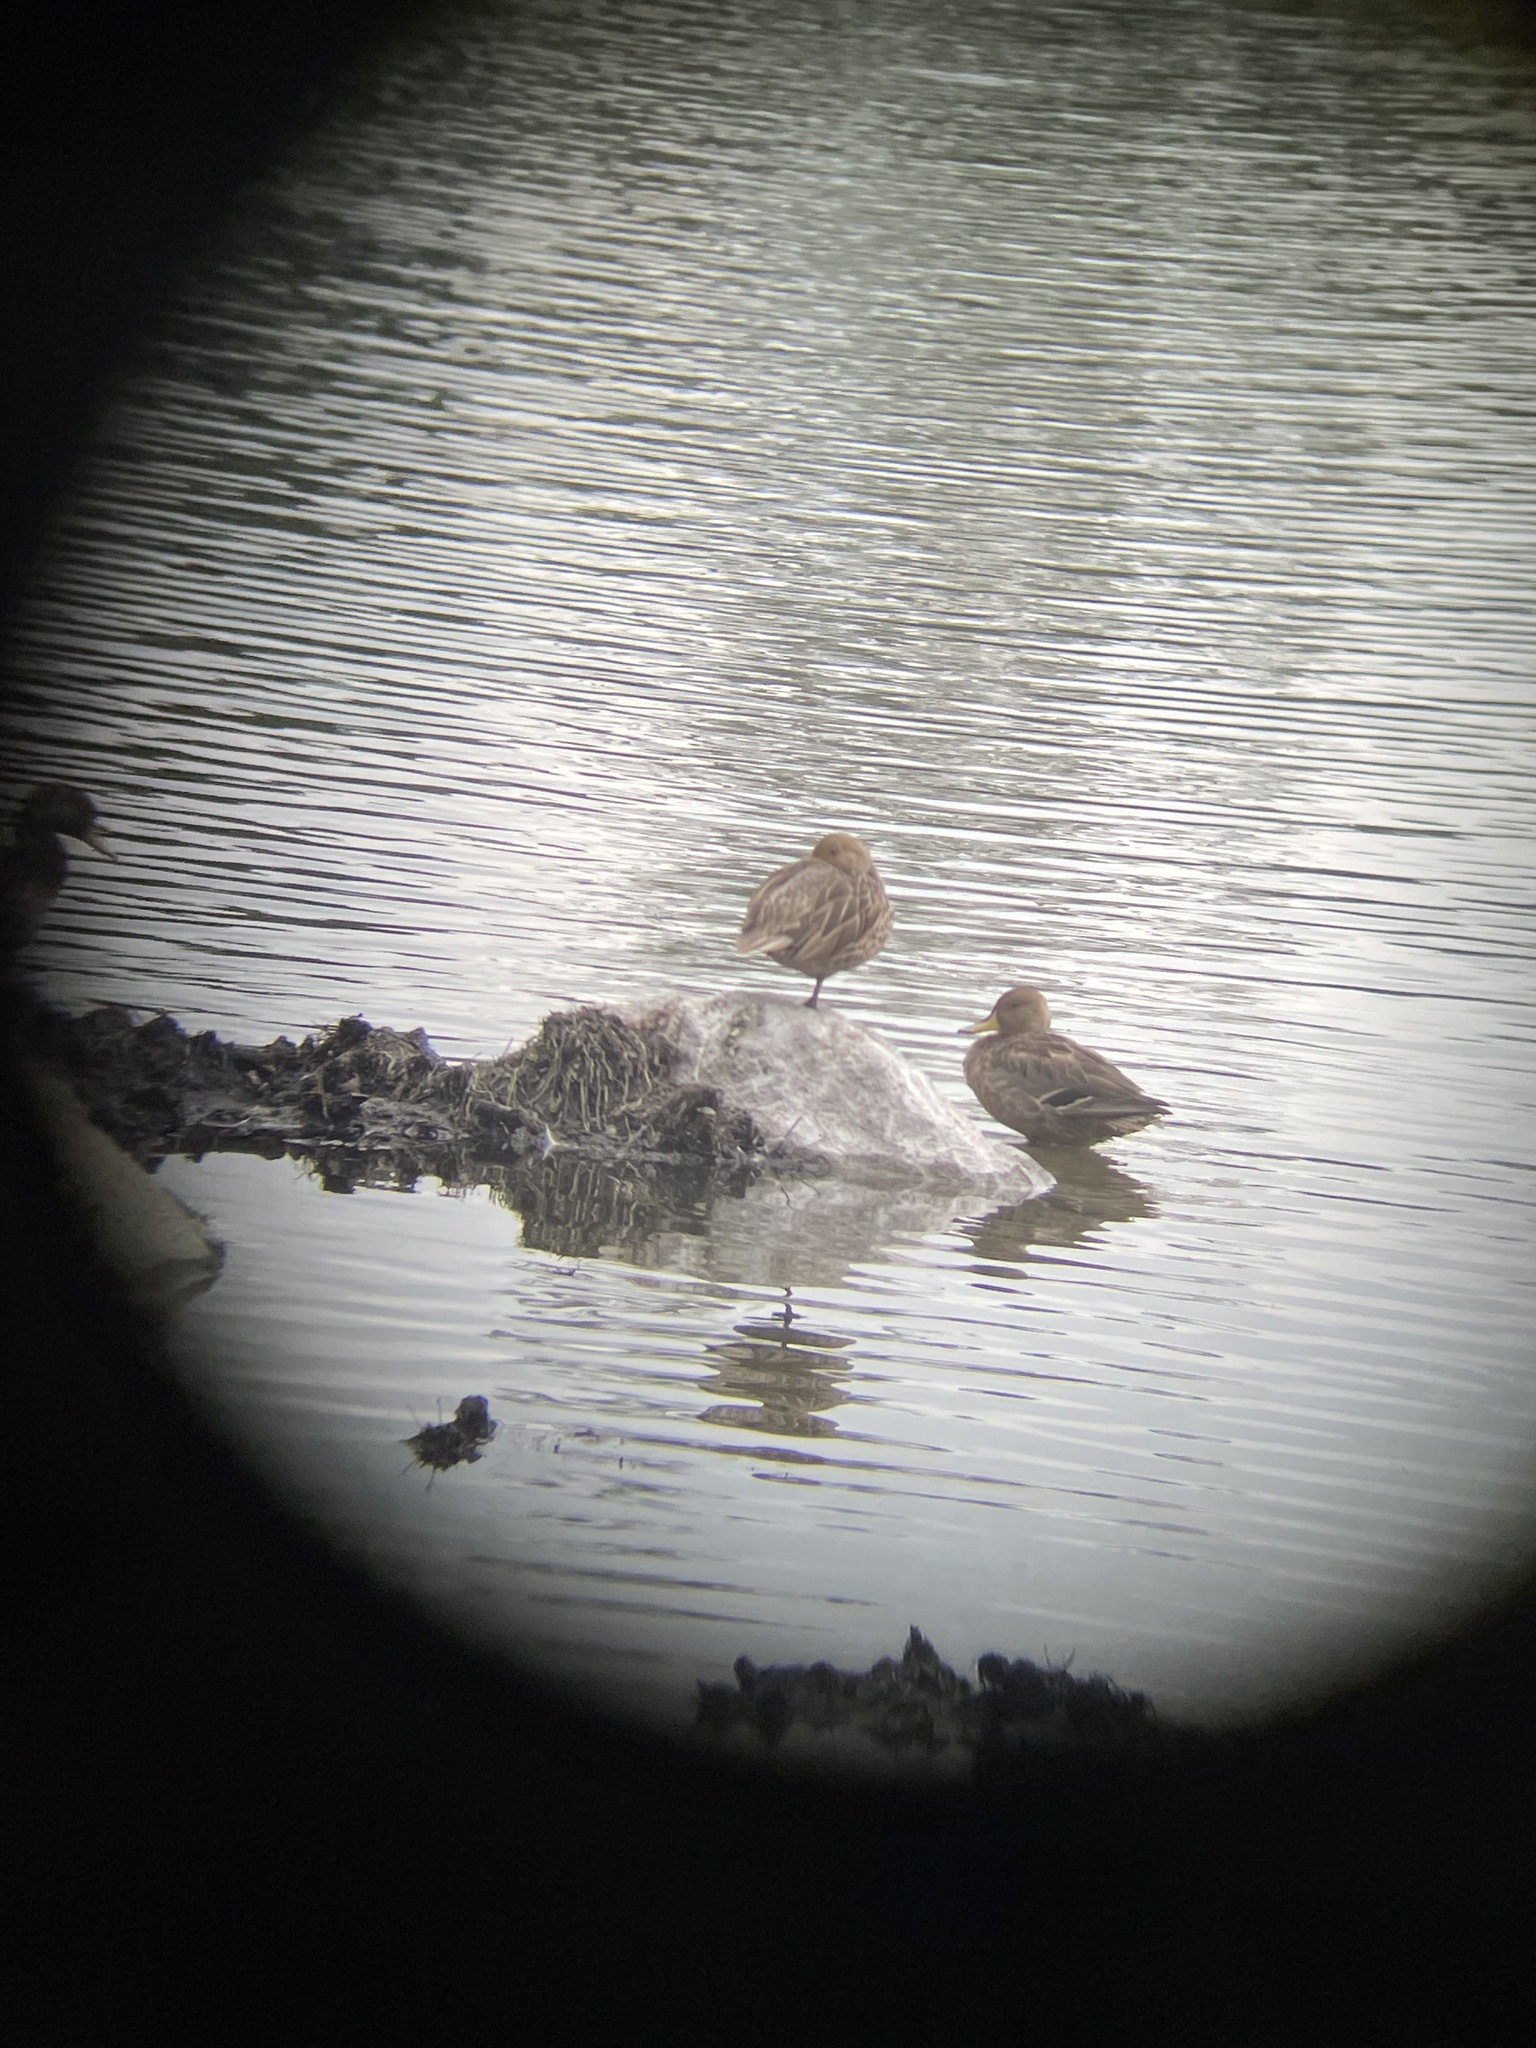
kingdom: Animalia
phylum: Chordata
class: Aves
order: Anseriformes
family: Anatidae
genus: Anas
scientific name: Anas georgica
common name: Yellow-billed pintail
